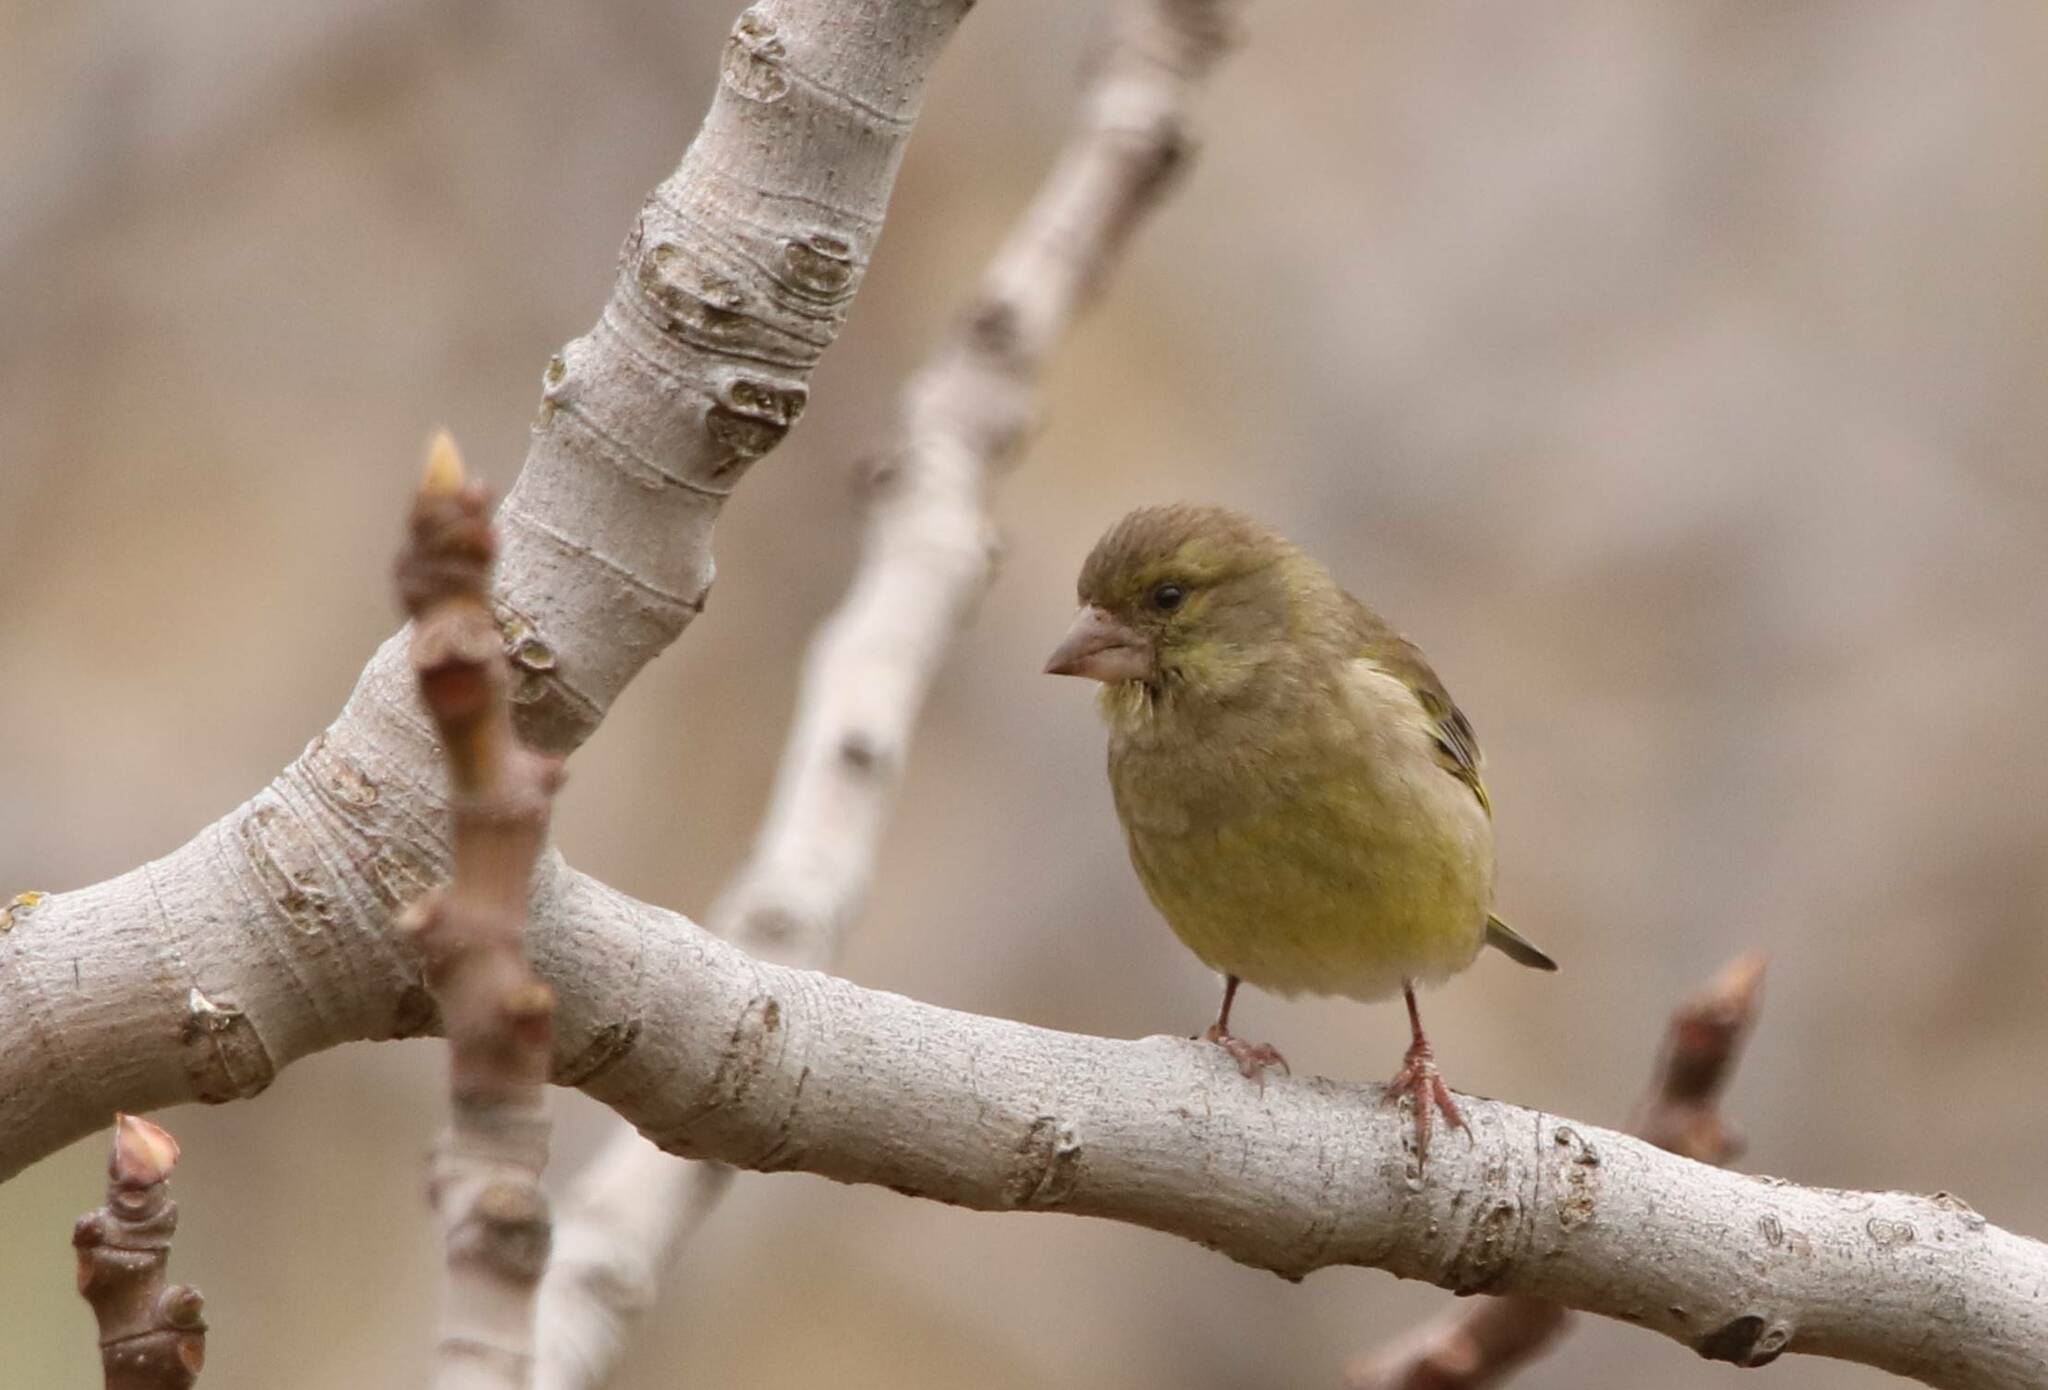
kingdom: Plantae
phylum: Tracheophyta
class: Liliopsida
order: Poales
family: Poaceae
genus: Chloris
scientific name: Chloris chloris
